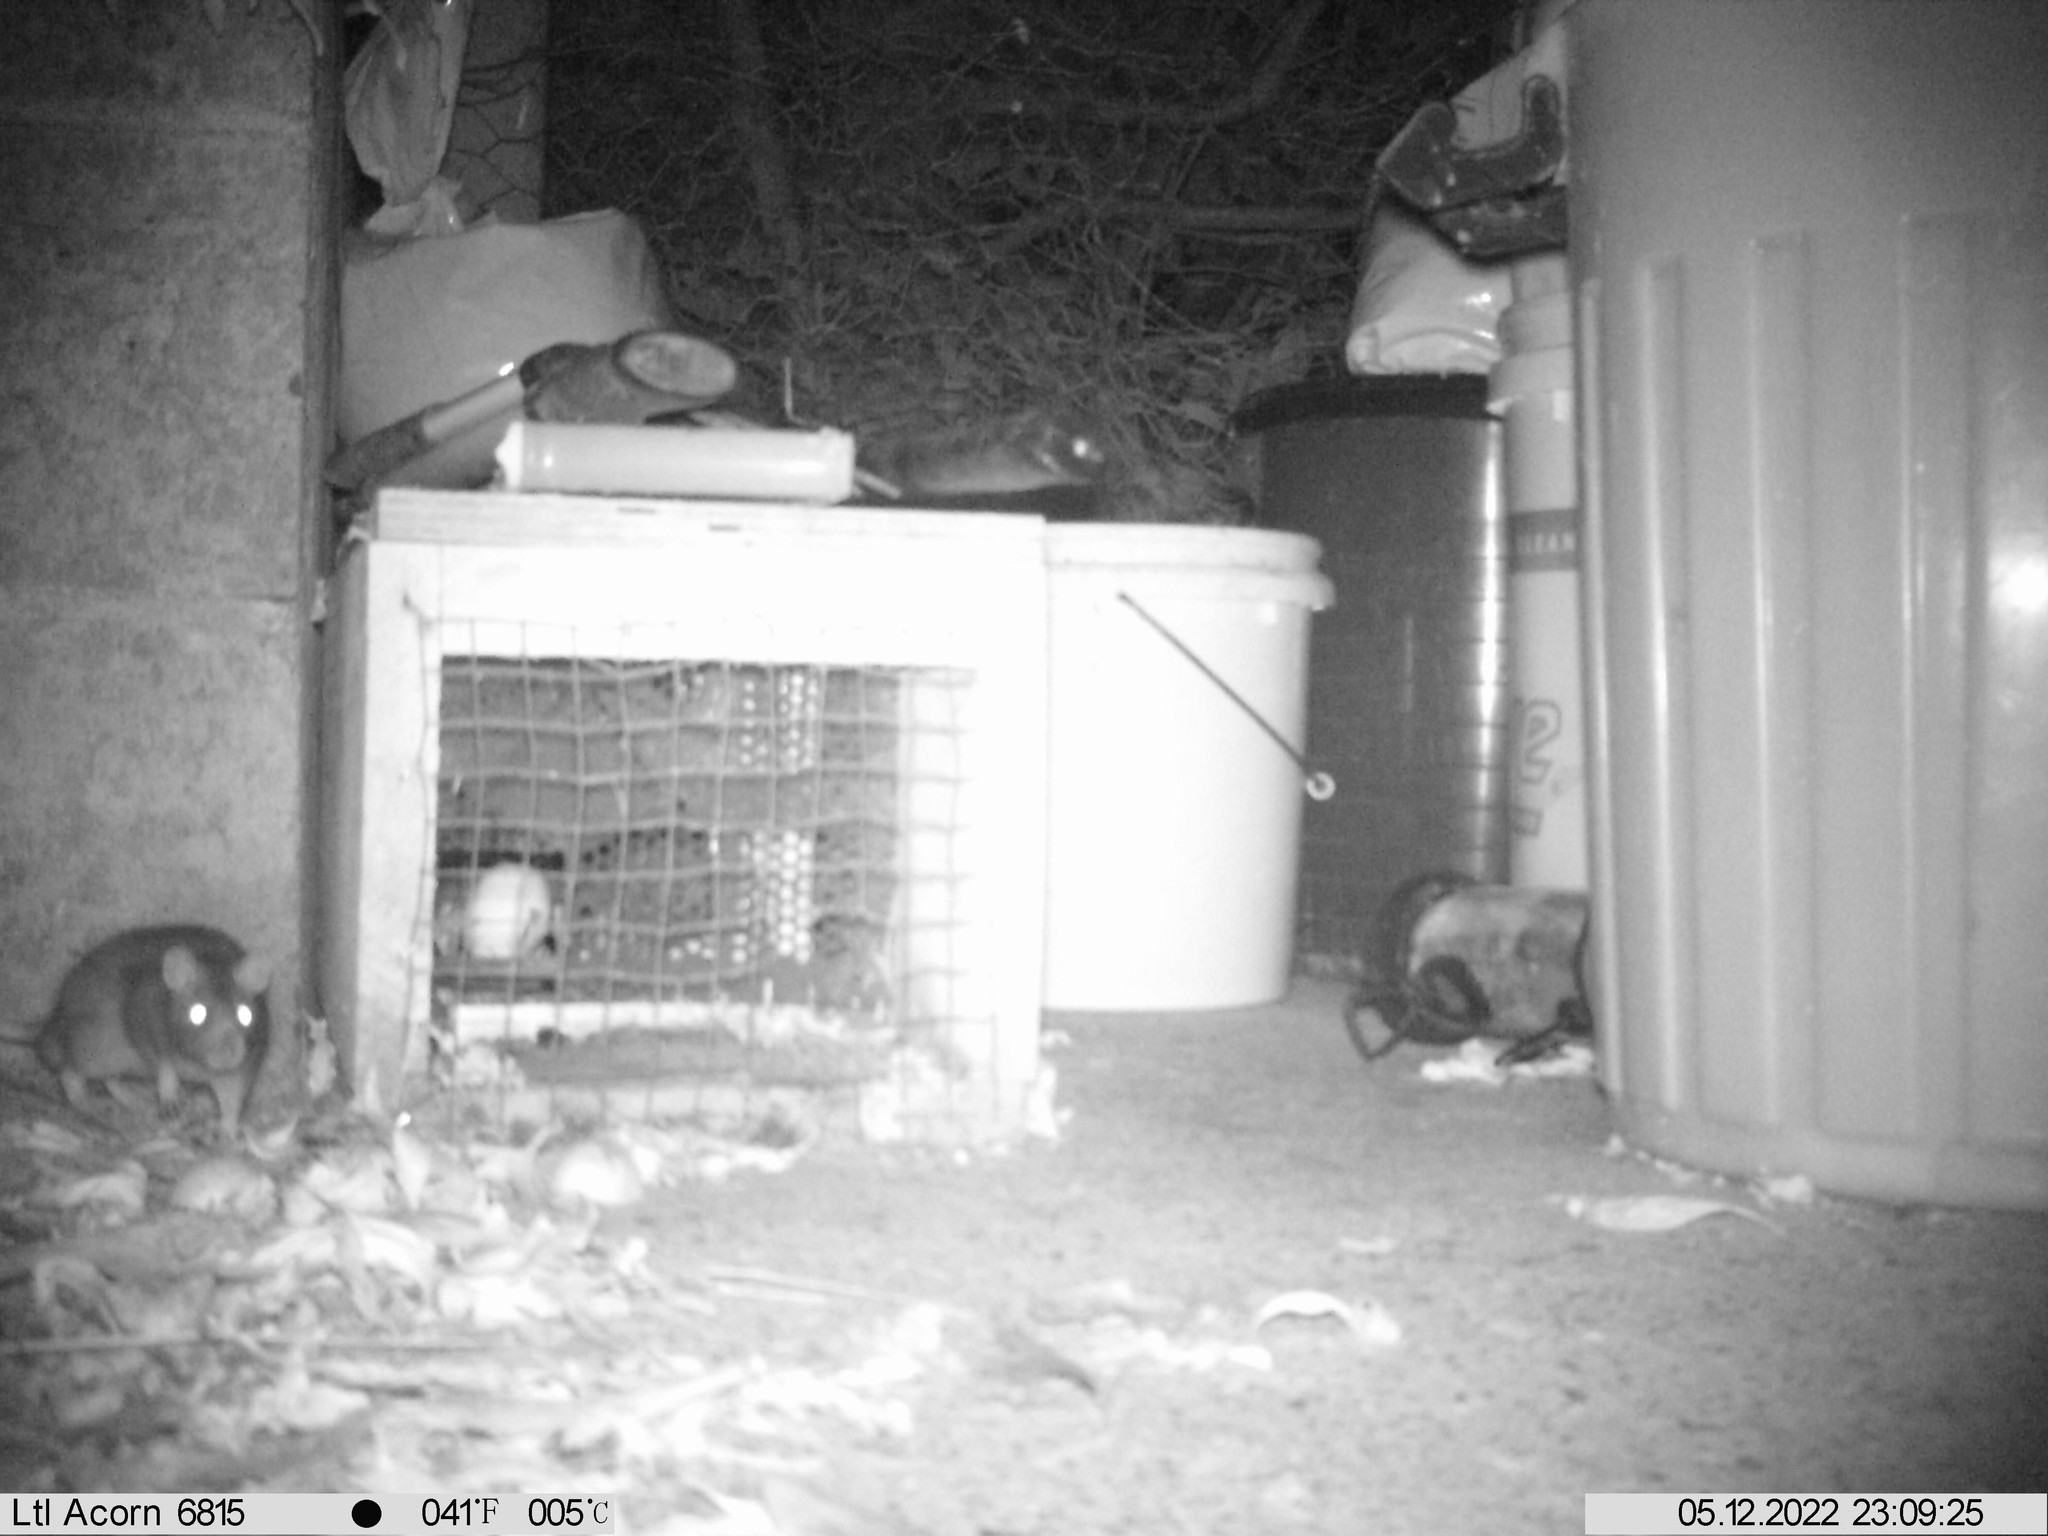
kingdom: Animalia
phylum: Chordata
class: Mammalia
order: Rodentia
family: Muridae
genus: Rattus
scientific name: Rattus norvegicus
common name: Brown rat
